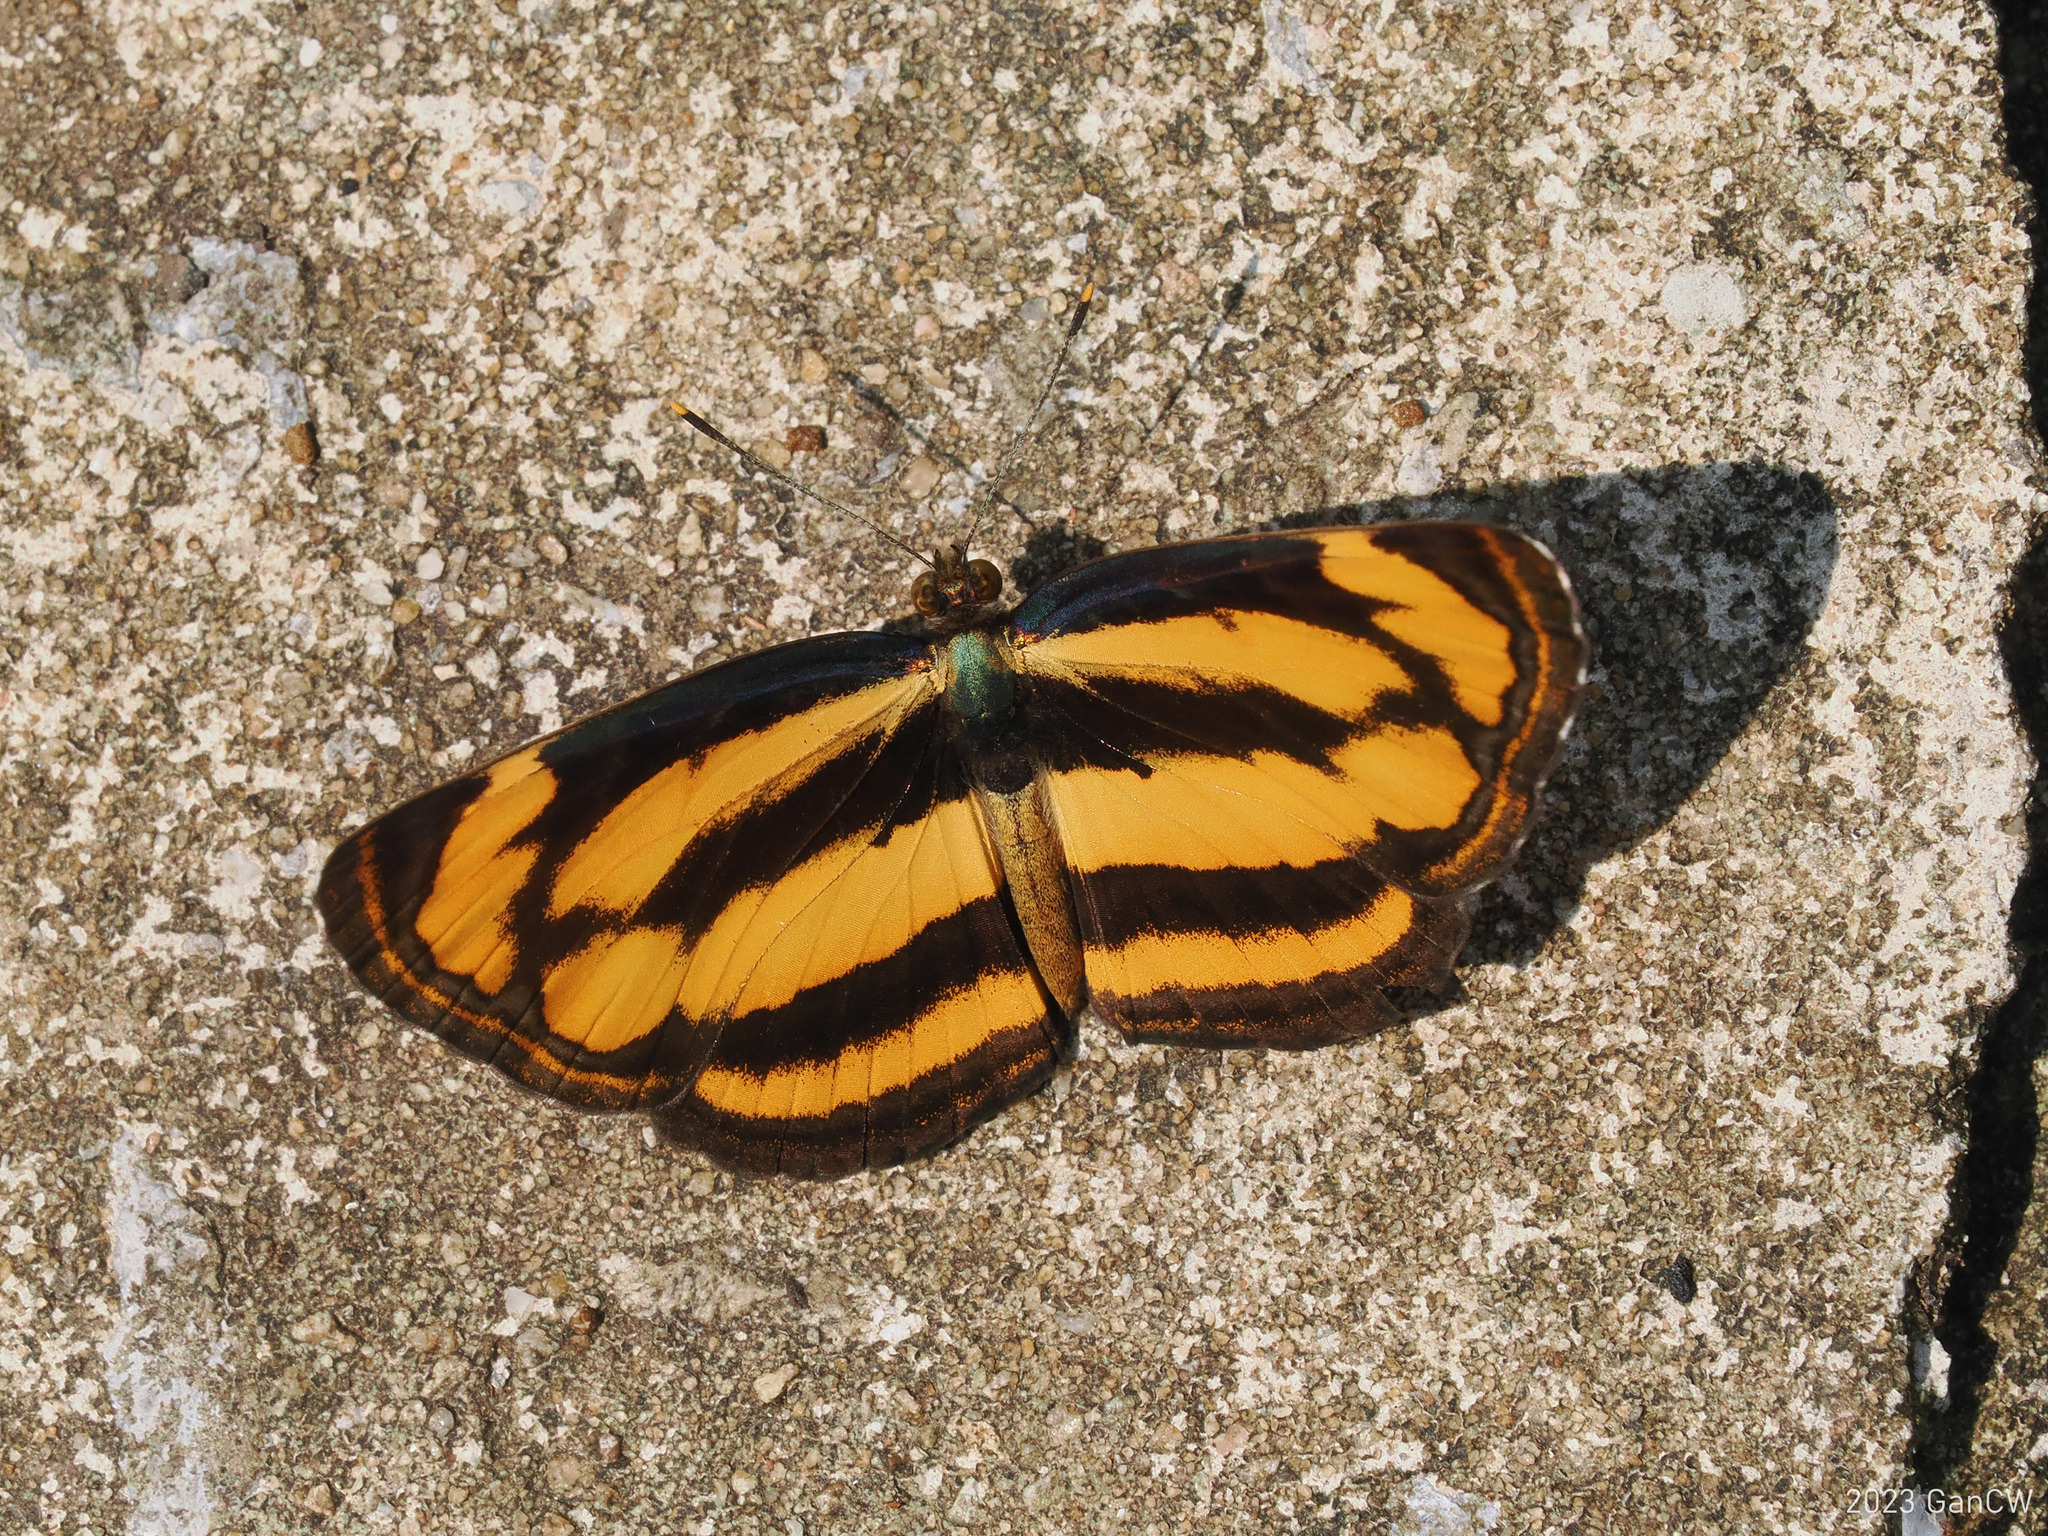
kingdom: Animalia
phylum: Arthropoda
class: Insecta
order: Lepidoptera
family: Nymphalidae
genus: Pantoporia
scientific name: Pantoporia hordonia
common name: Common lascar
